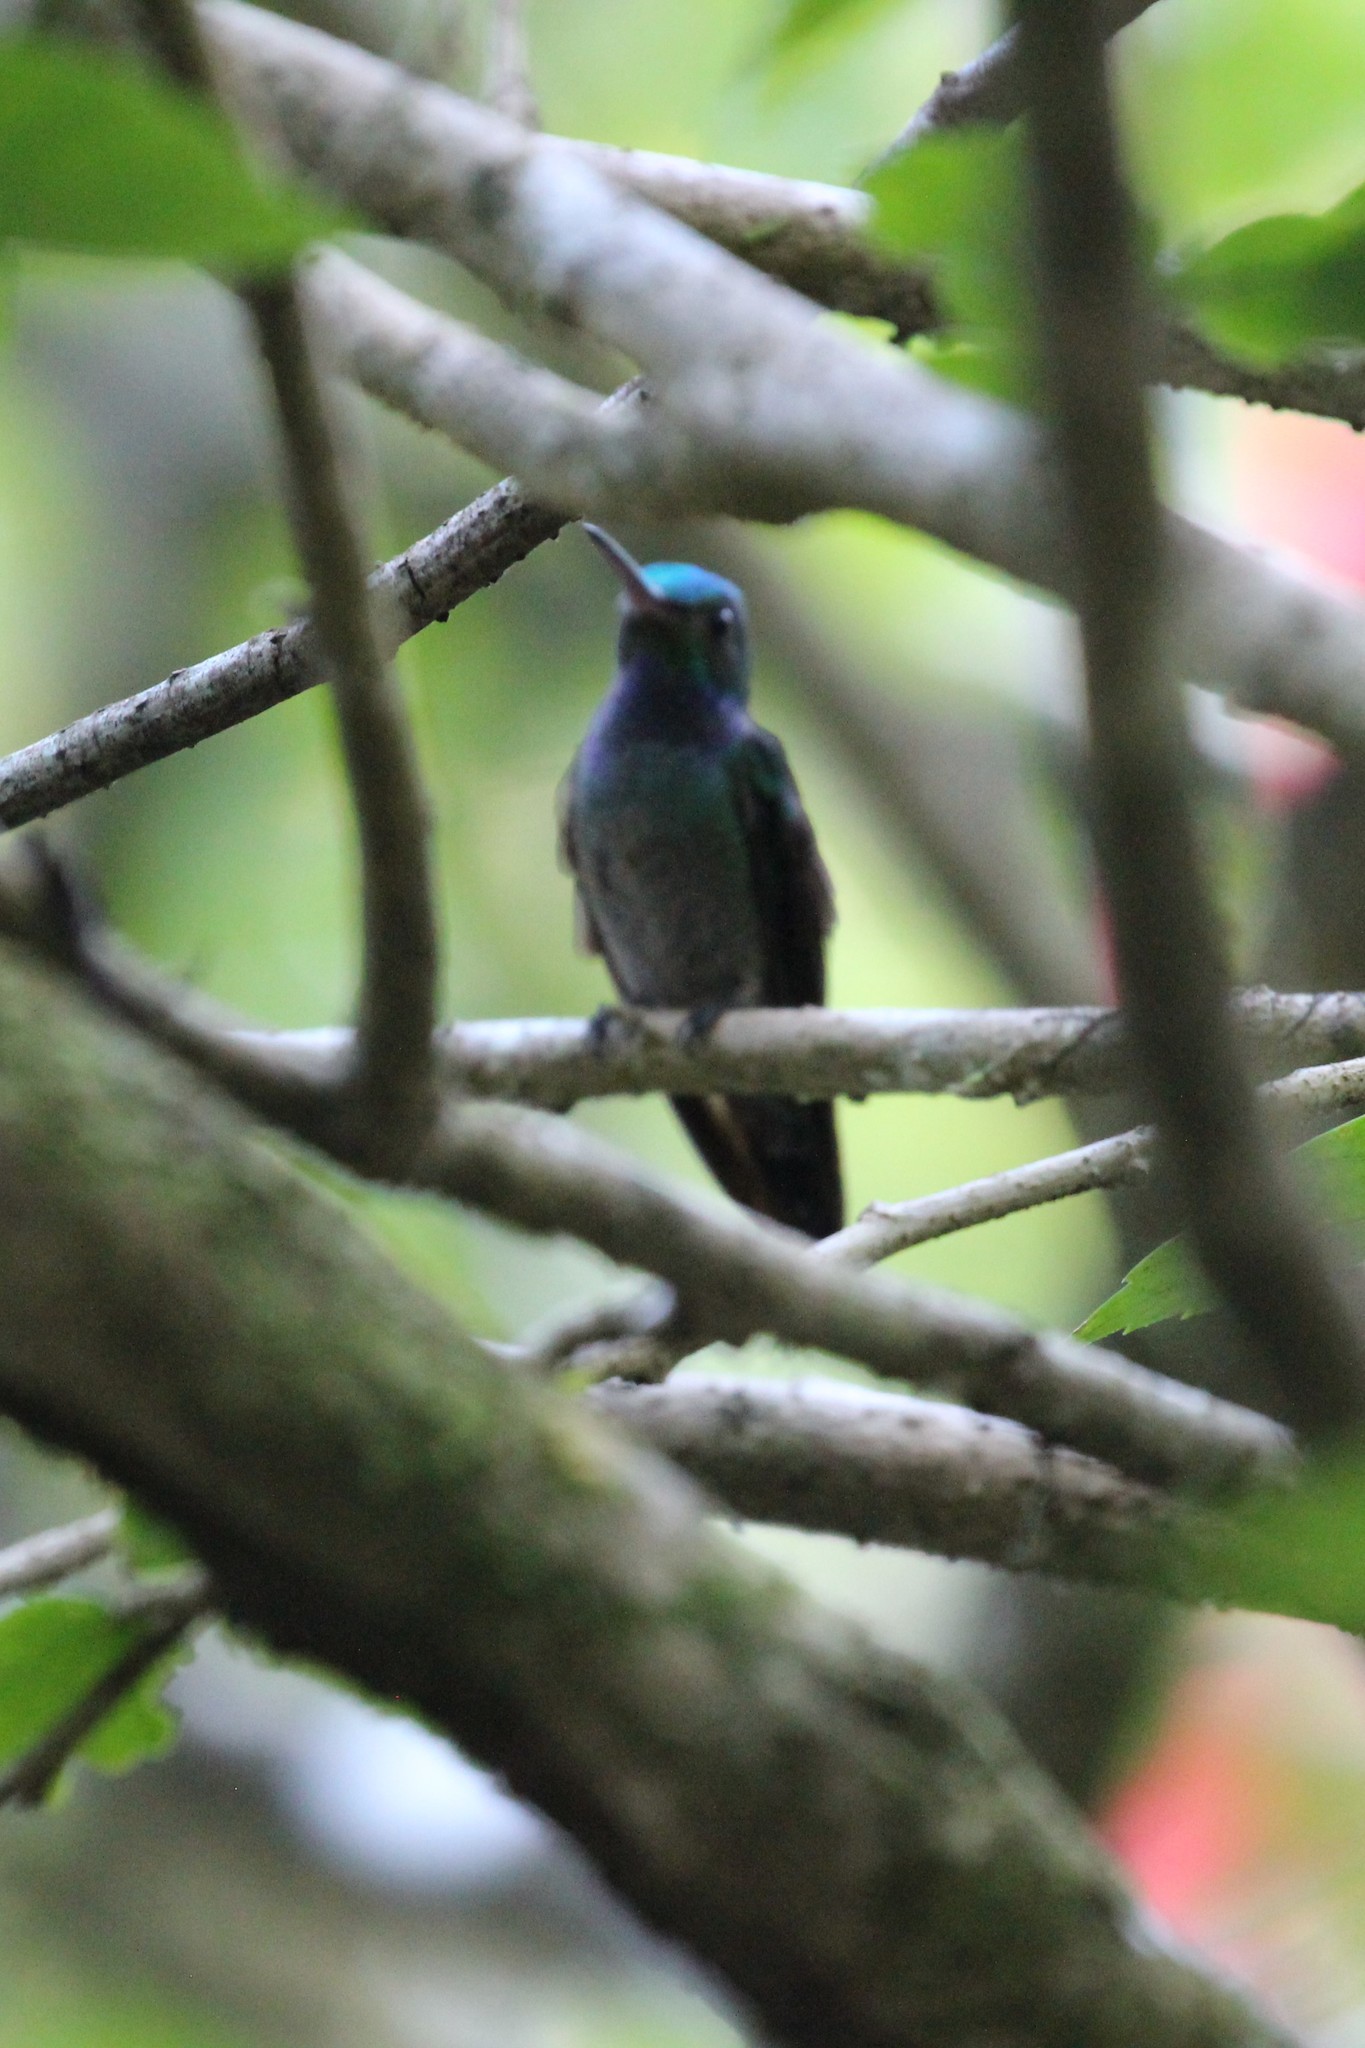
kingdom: Animalia
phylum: Chordata
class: Aves
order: Apodiformes
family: Trochilidae
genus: Polyerata
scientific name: Polyerata decora
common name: Charming hummingbird
